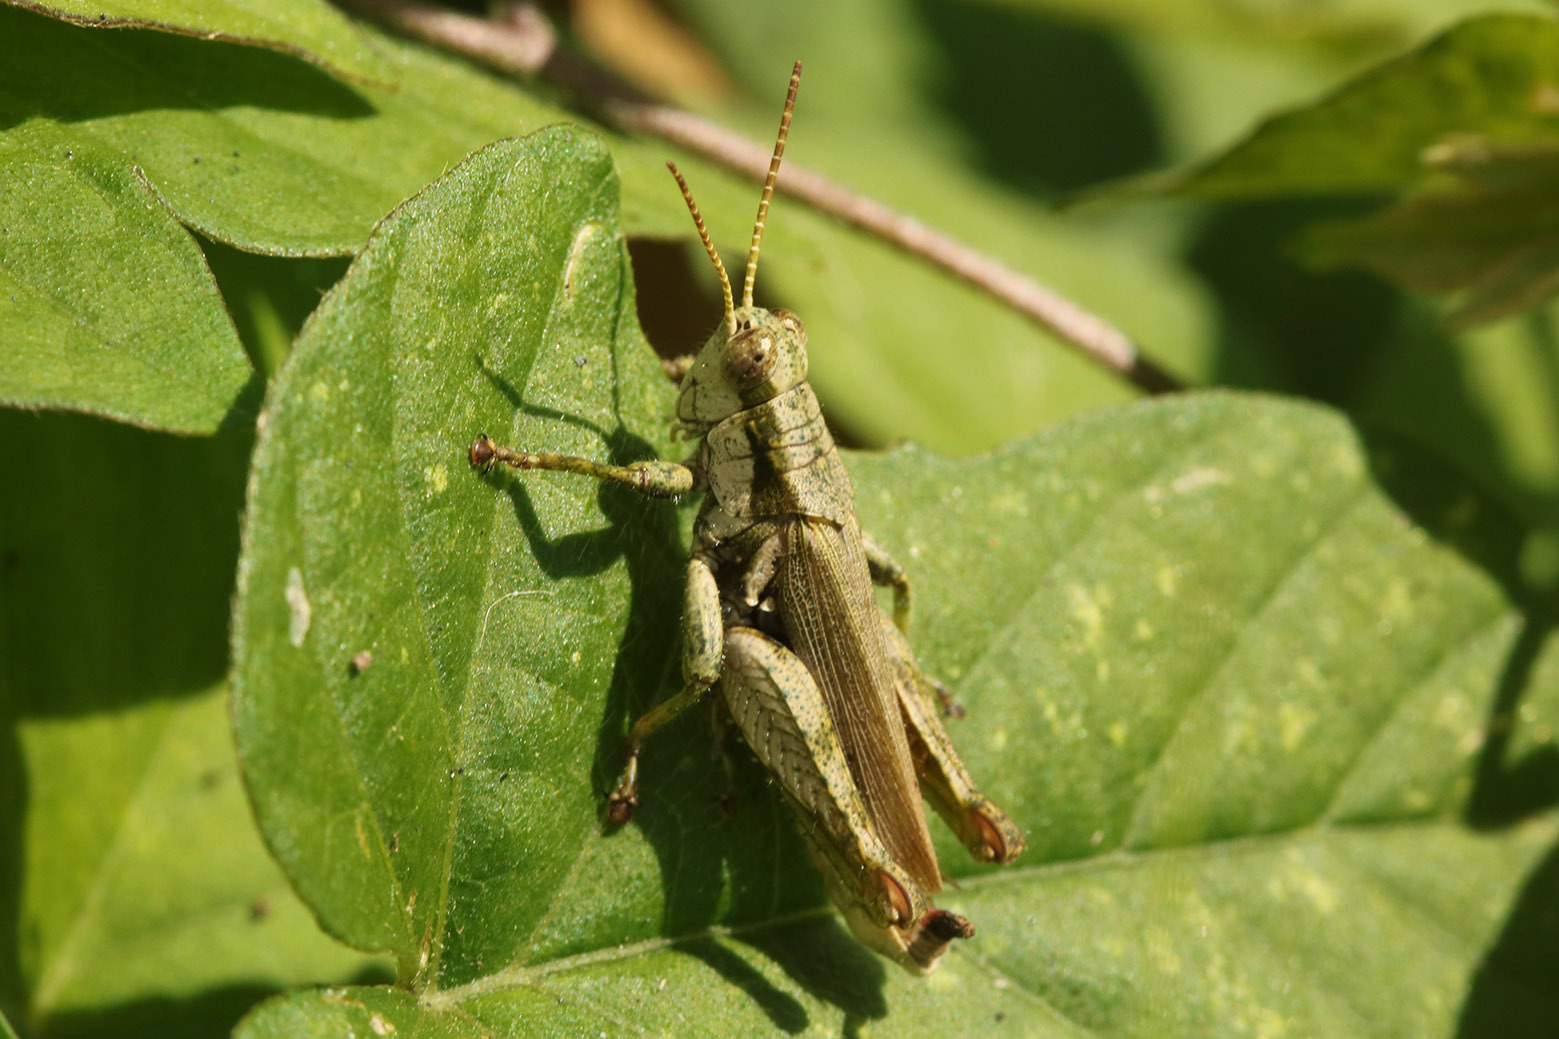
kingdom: Animalia
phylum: Arthropoda
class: Insecta
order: Orthoptera
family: Acrididae
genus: Ronderosia
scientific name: Ronderosia bergii
